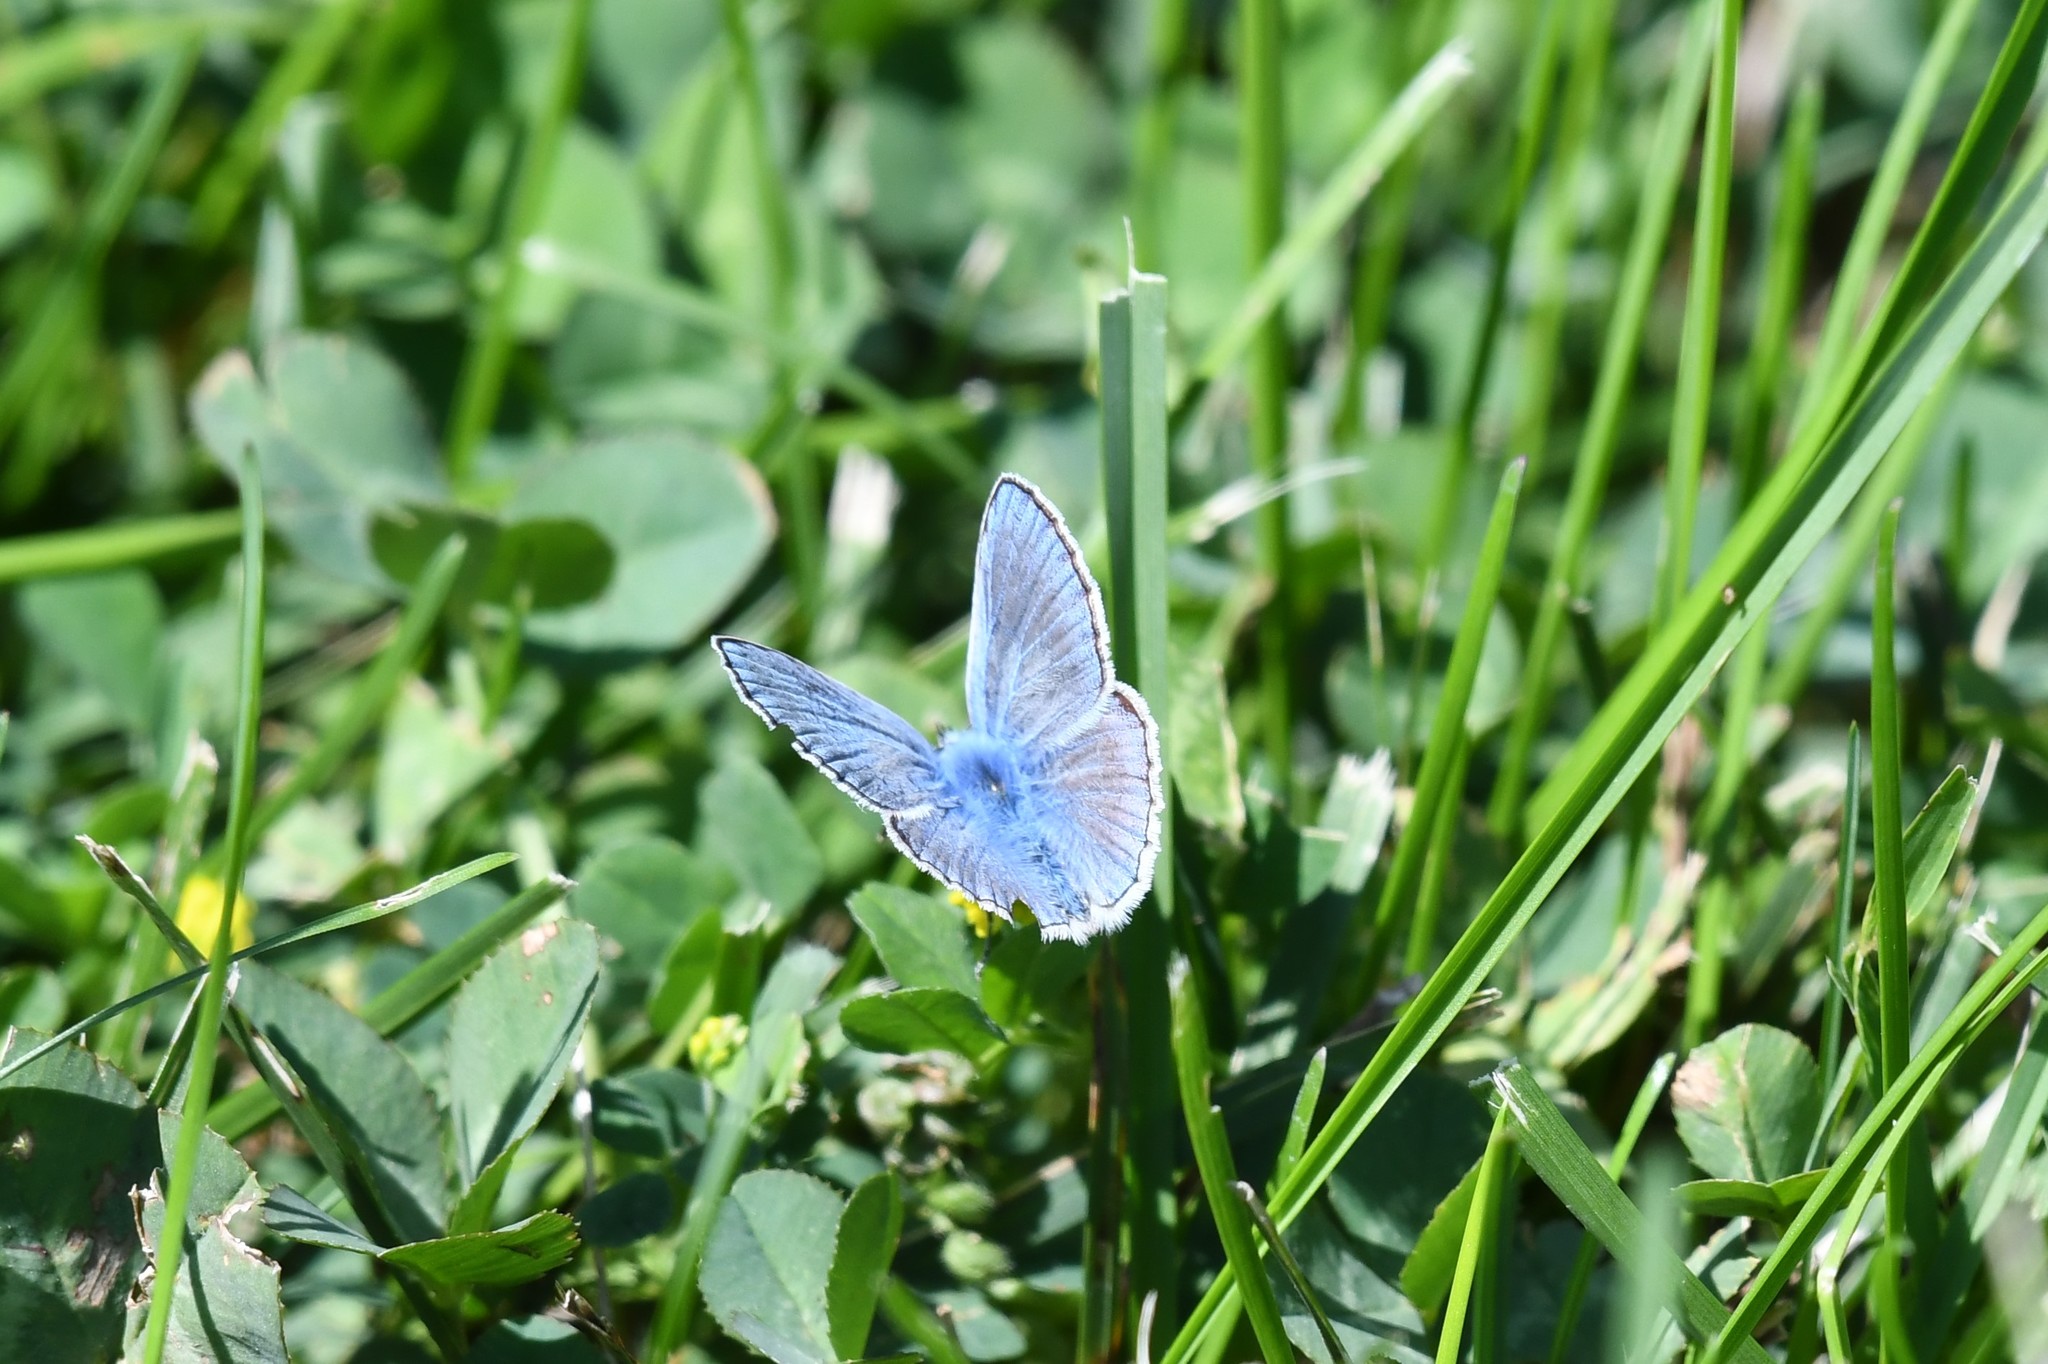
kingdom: Animalia
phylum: Arthropoda
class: Insecta
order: Lepidoptera
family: Lycaenidae
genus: Polyommatus
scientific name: Polyommatus icarus
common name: Common blue
